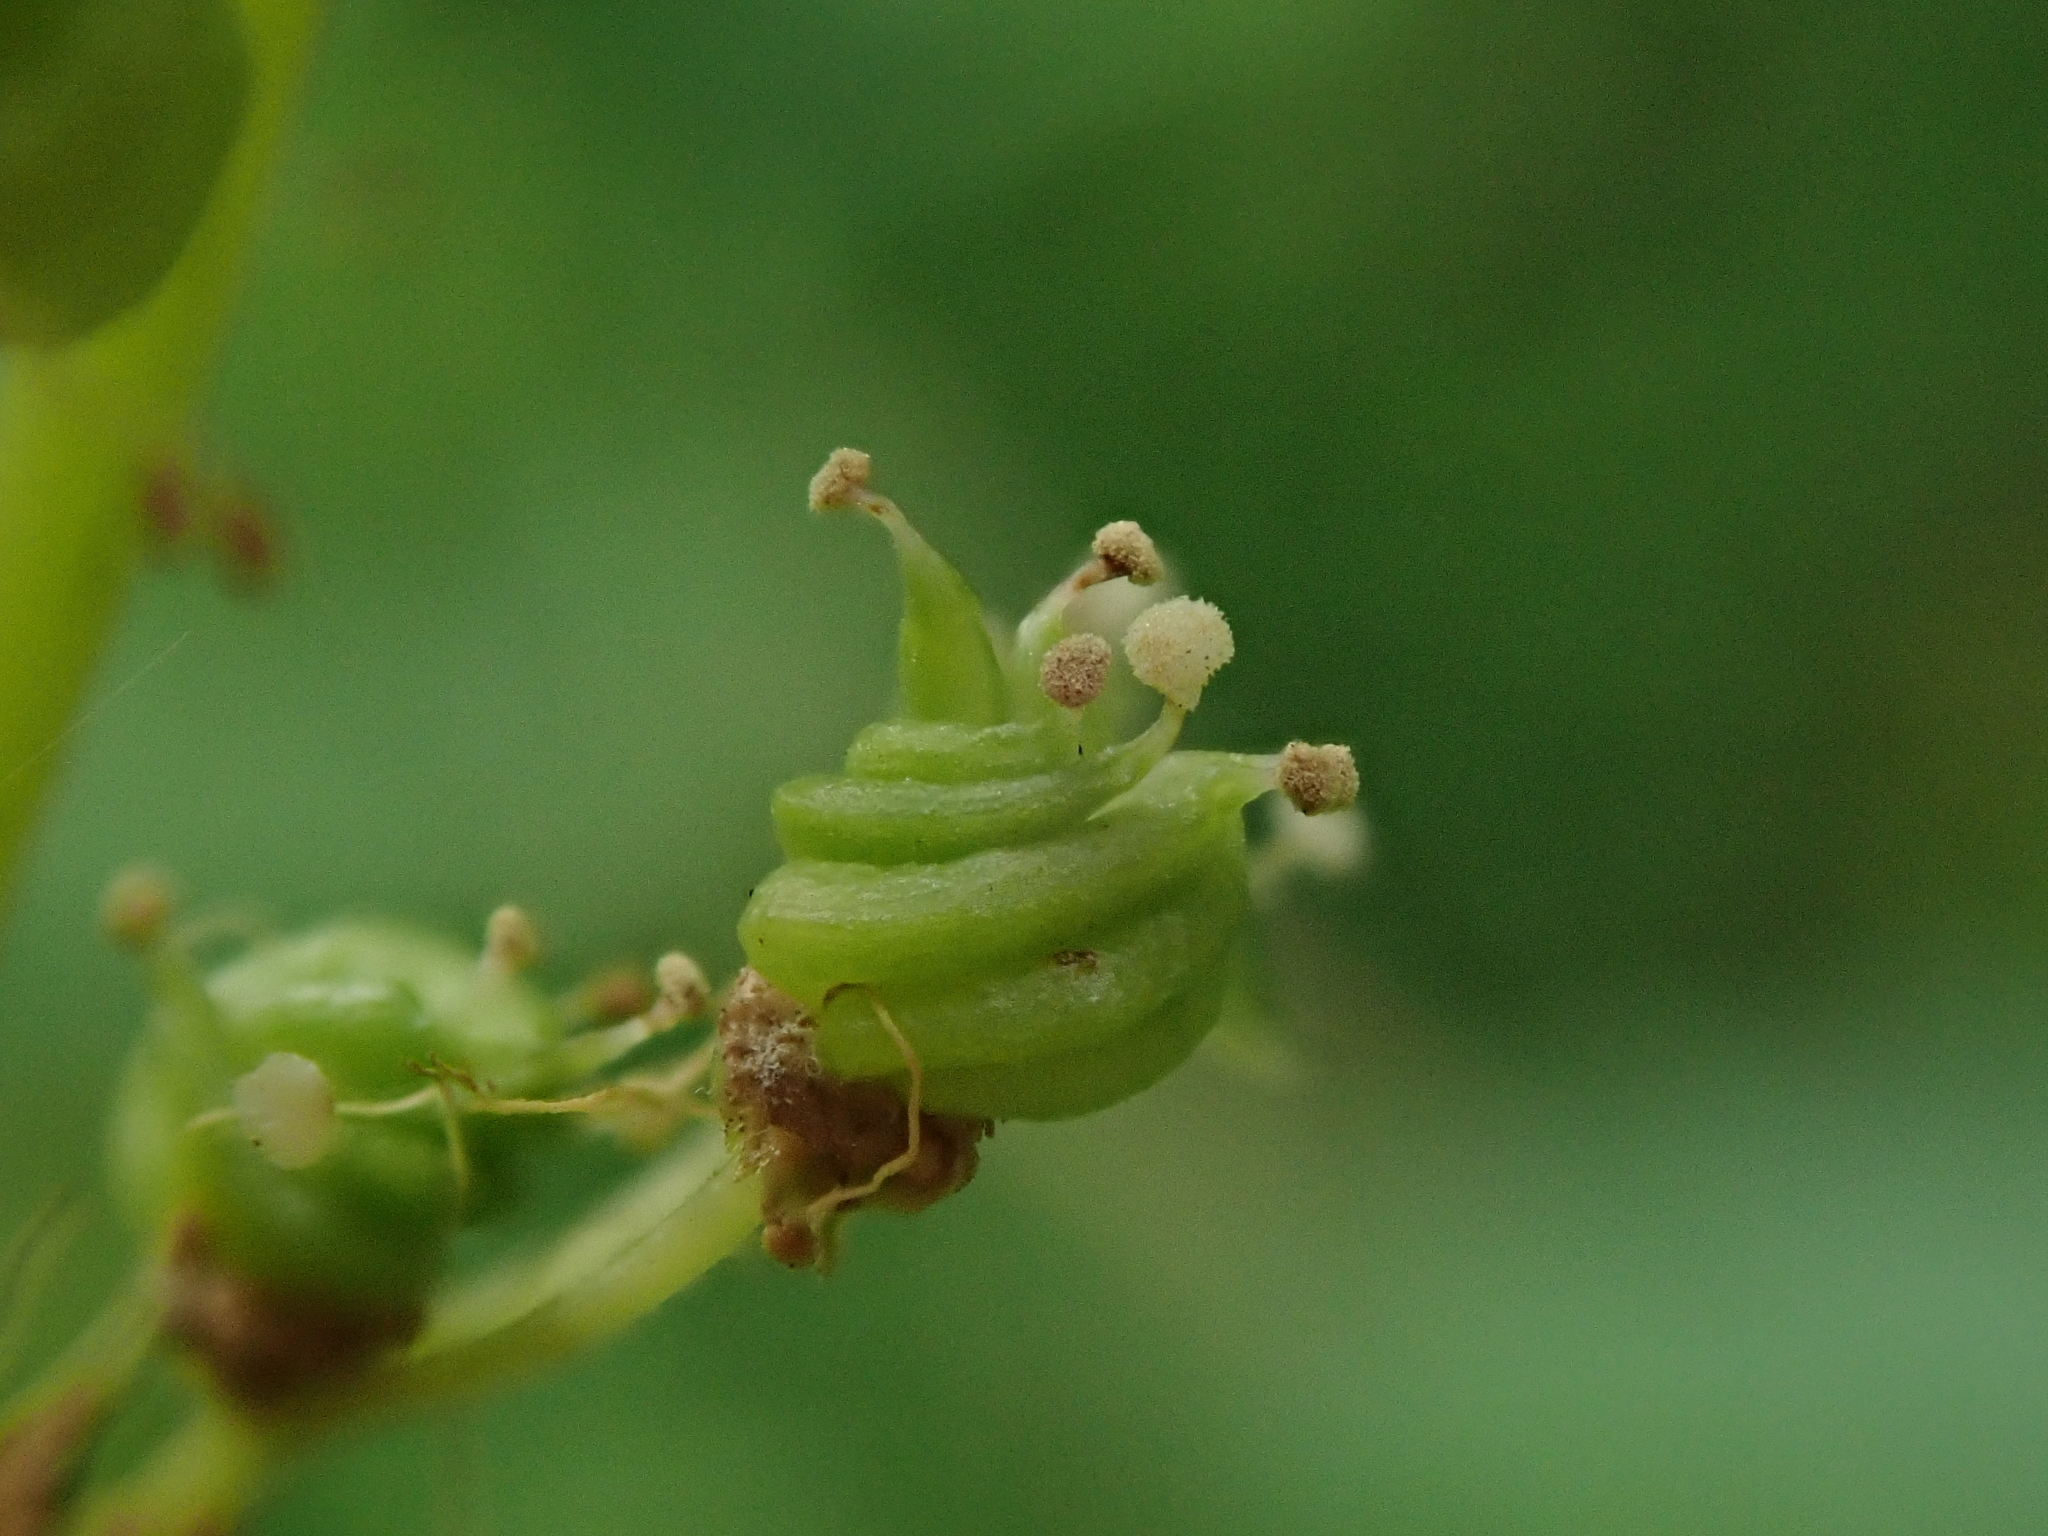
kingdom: Plantae
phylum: Tracheophyta
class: Magnoliopsida
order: Rosales
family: Rosaceae
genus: Filipendula
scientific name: Filipendula ulmaria
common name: Meadowsweet
